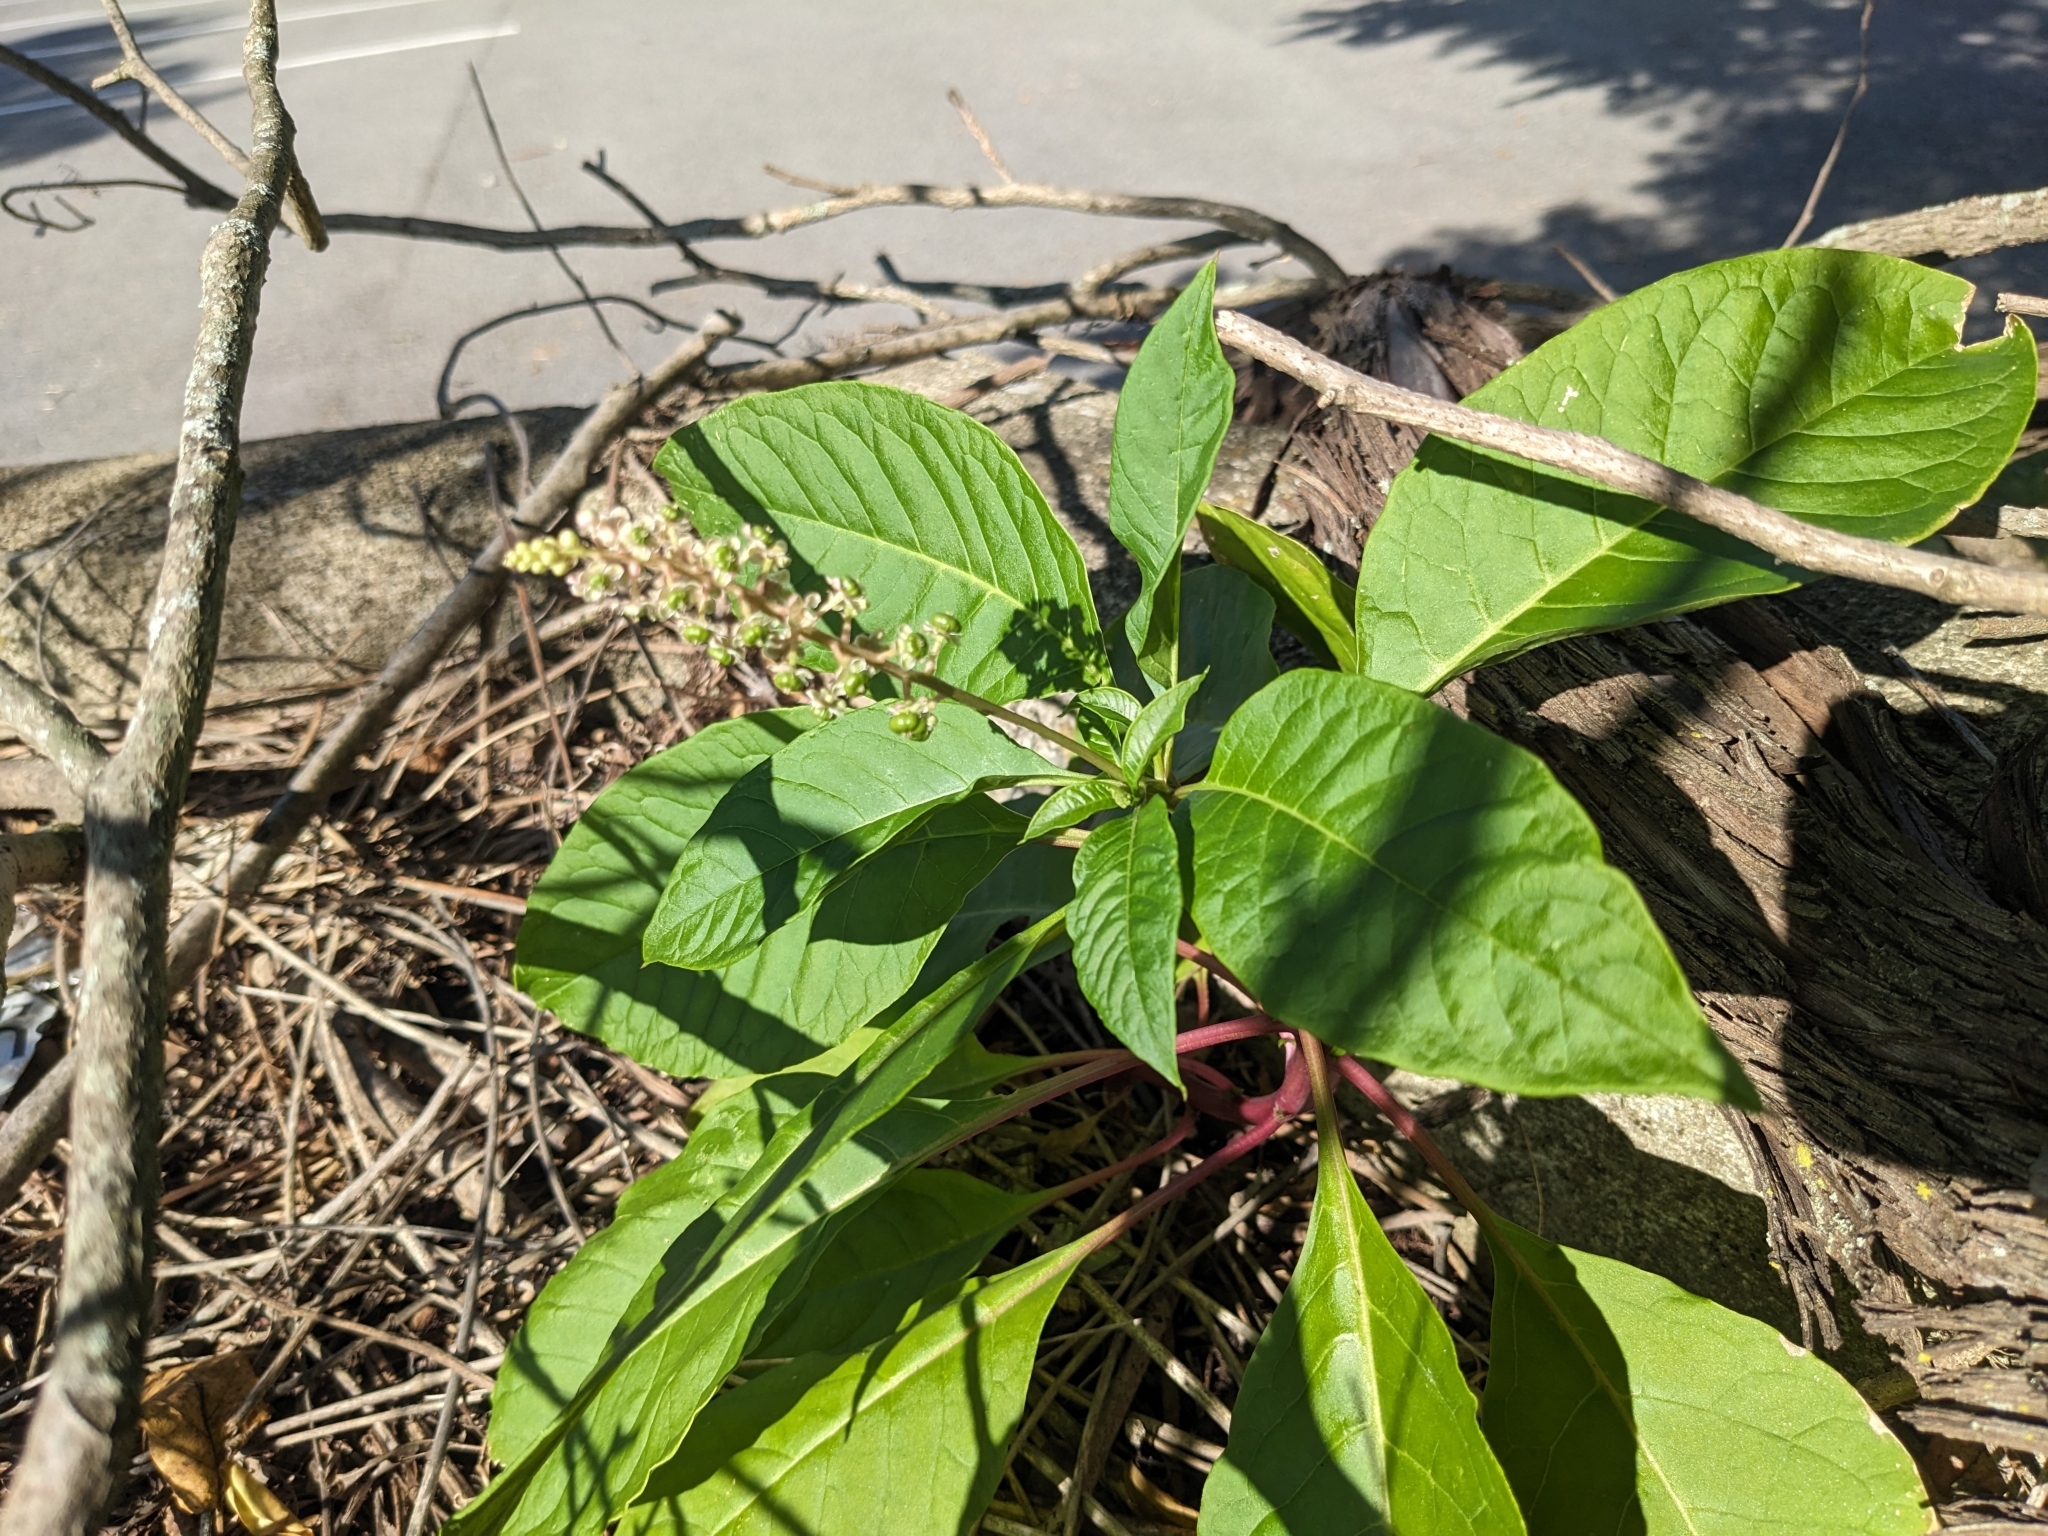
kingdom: Plantae
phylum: Tracheophyta
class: Magnoliopsida
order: Caryophyllales
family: Phytolaccaceae
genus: Phytolacca
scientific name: Phytolacca americana
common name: American pokeweed
